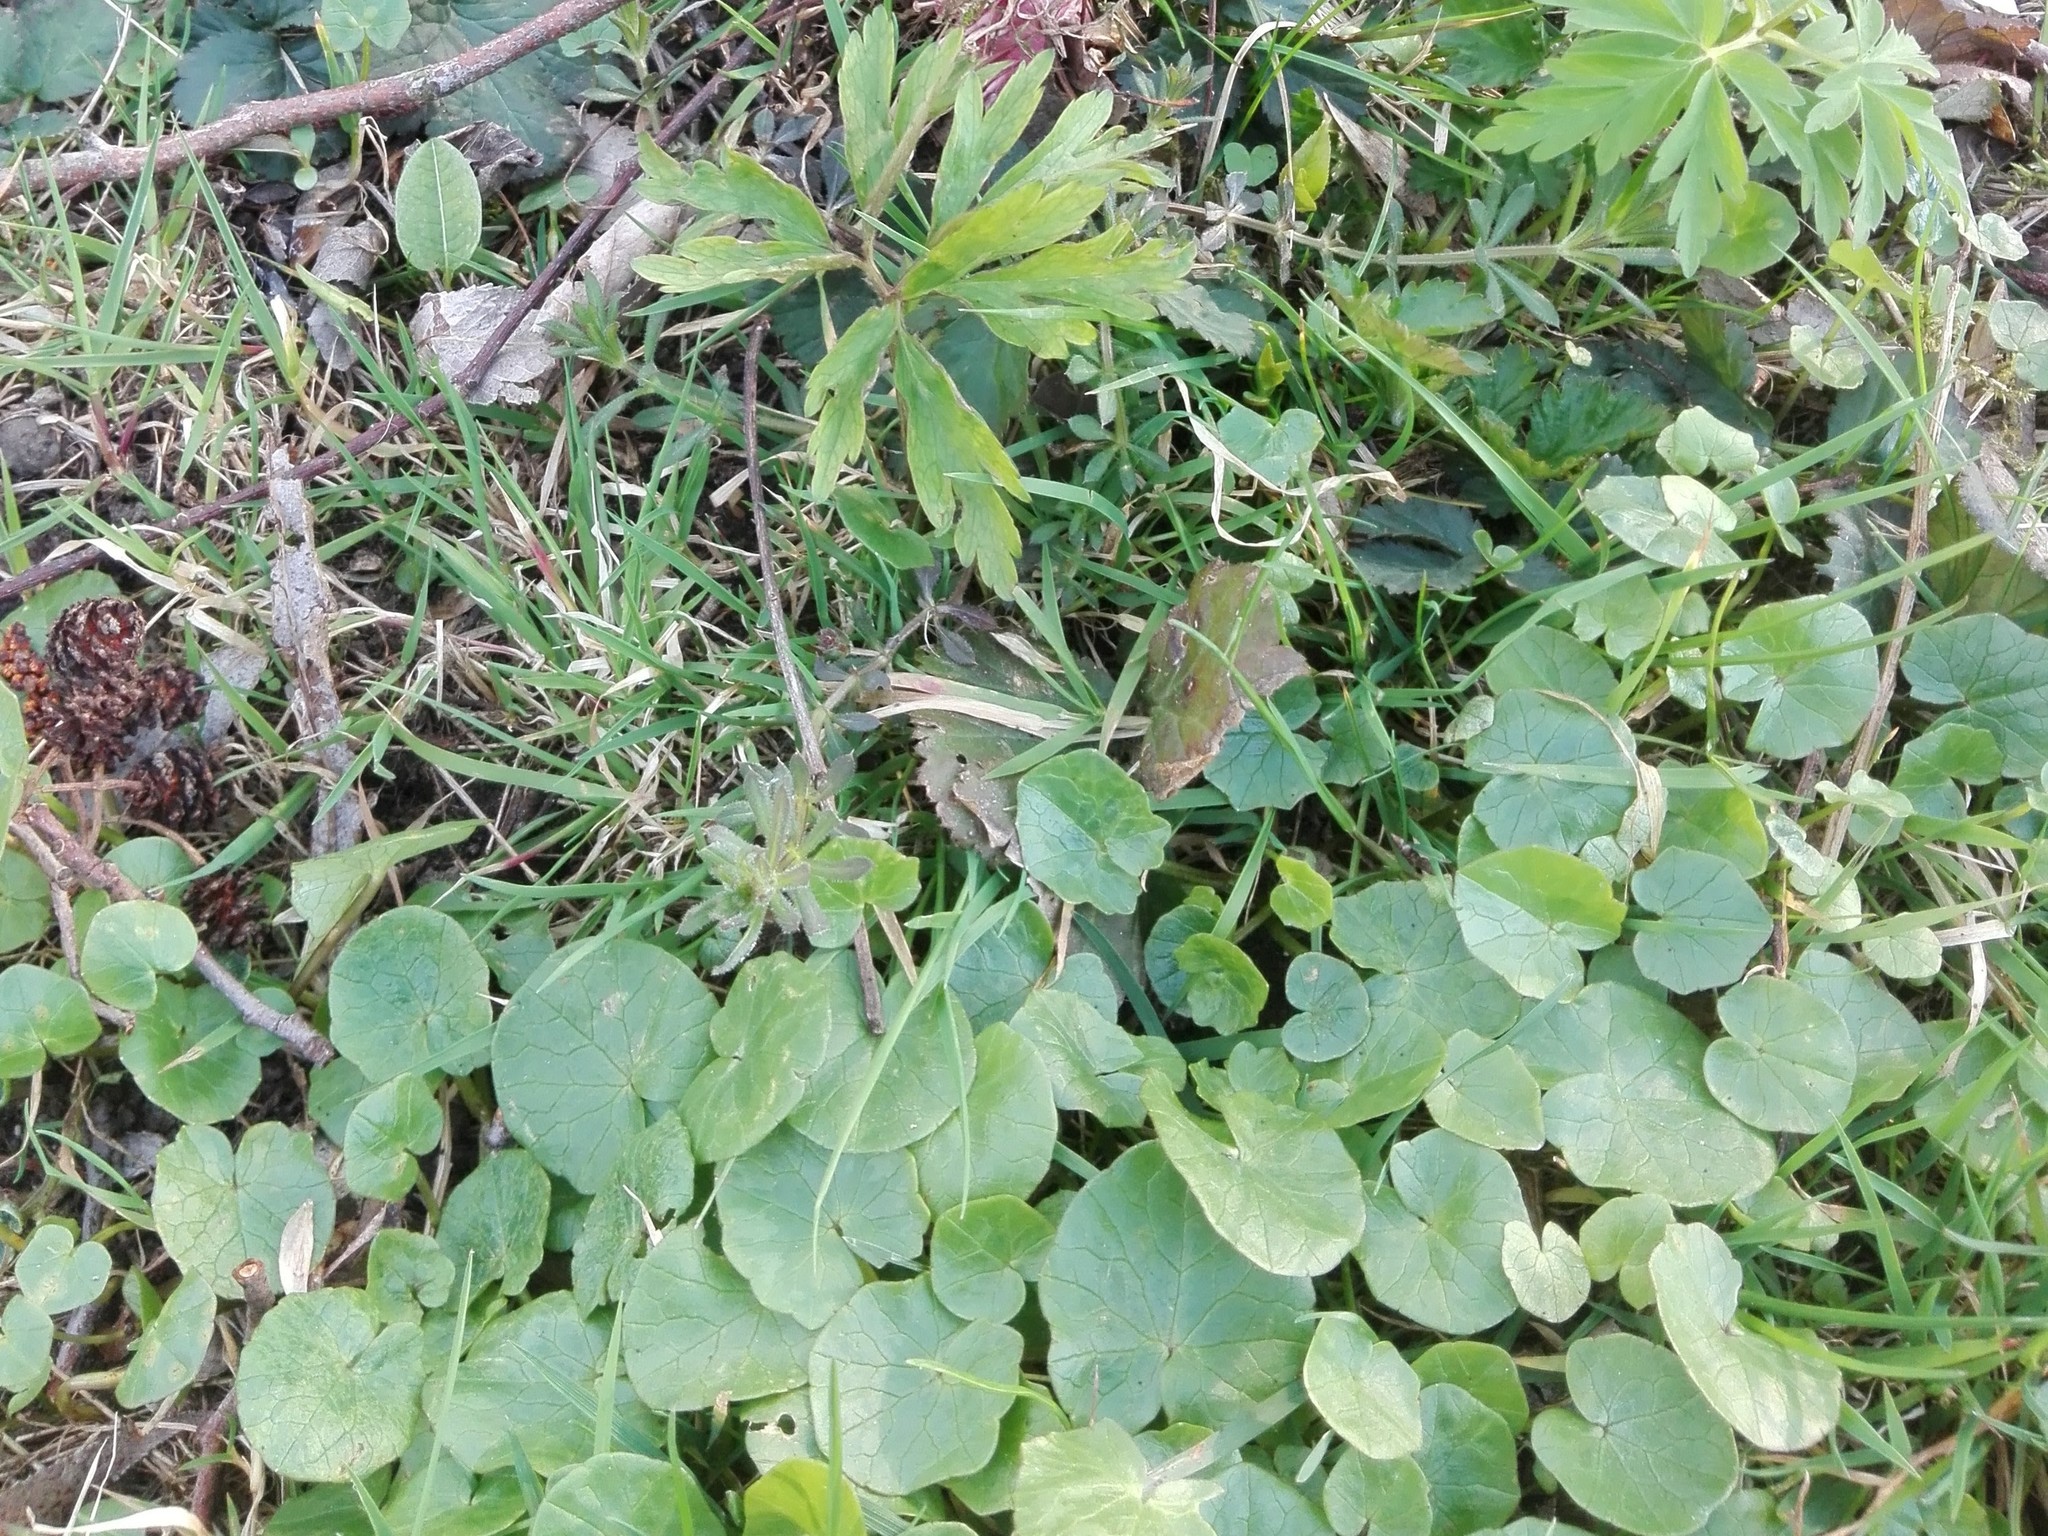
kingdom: Plantae
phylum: Tracheophyta
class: Magnoliopsida
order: Ranunculales
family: Ranunculaceae
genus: Ficaria
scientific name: Ficaria verna
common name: Lesser celandine
